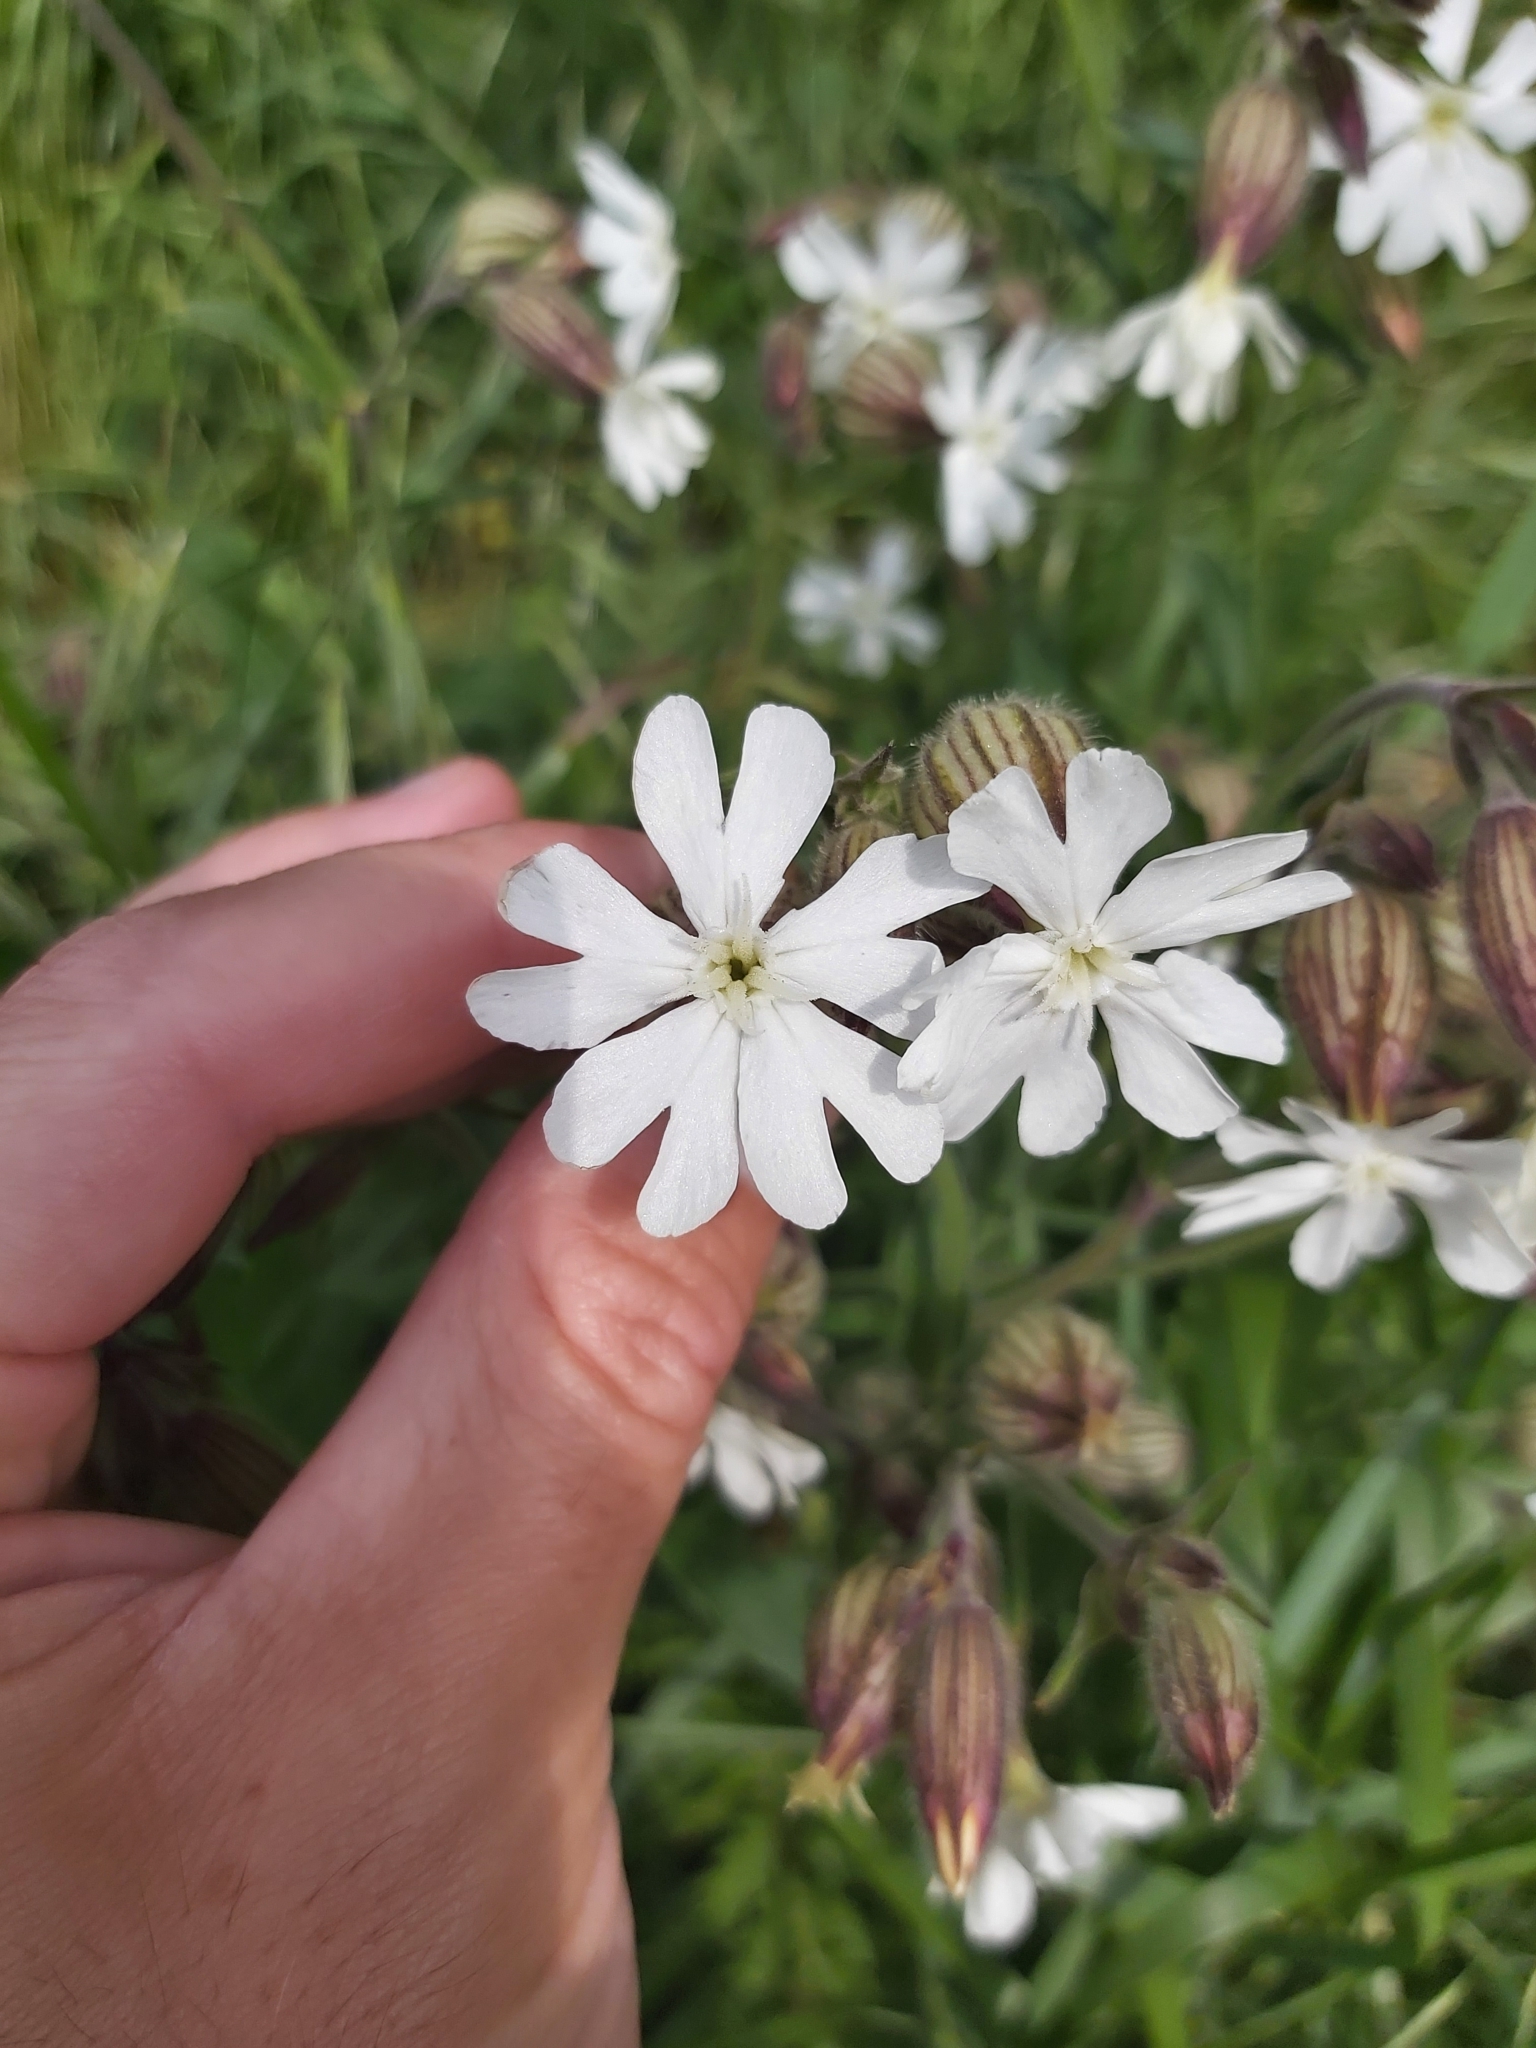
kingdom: Plantae
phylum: Tracheophyta
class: Magnoliopsida
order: Caryophyllales
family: Caryophyllaceae
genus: Silene
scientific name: Silene latifolia
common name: White campion
